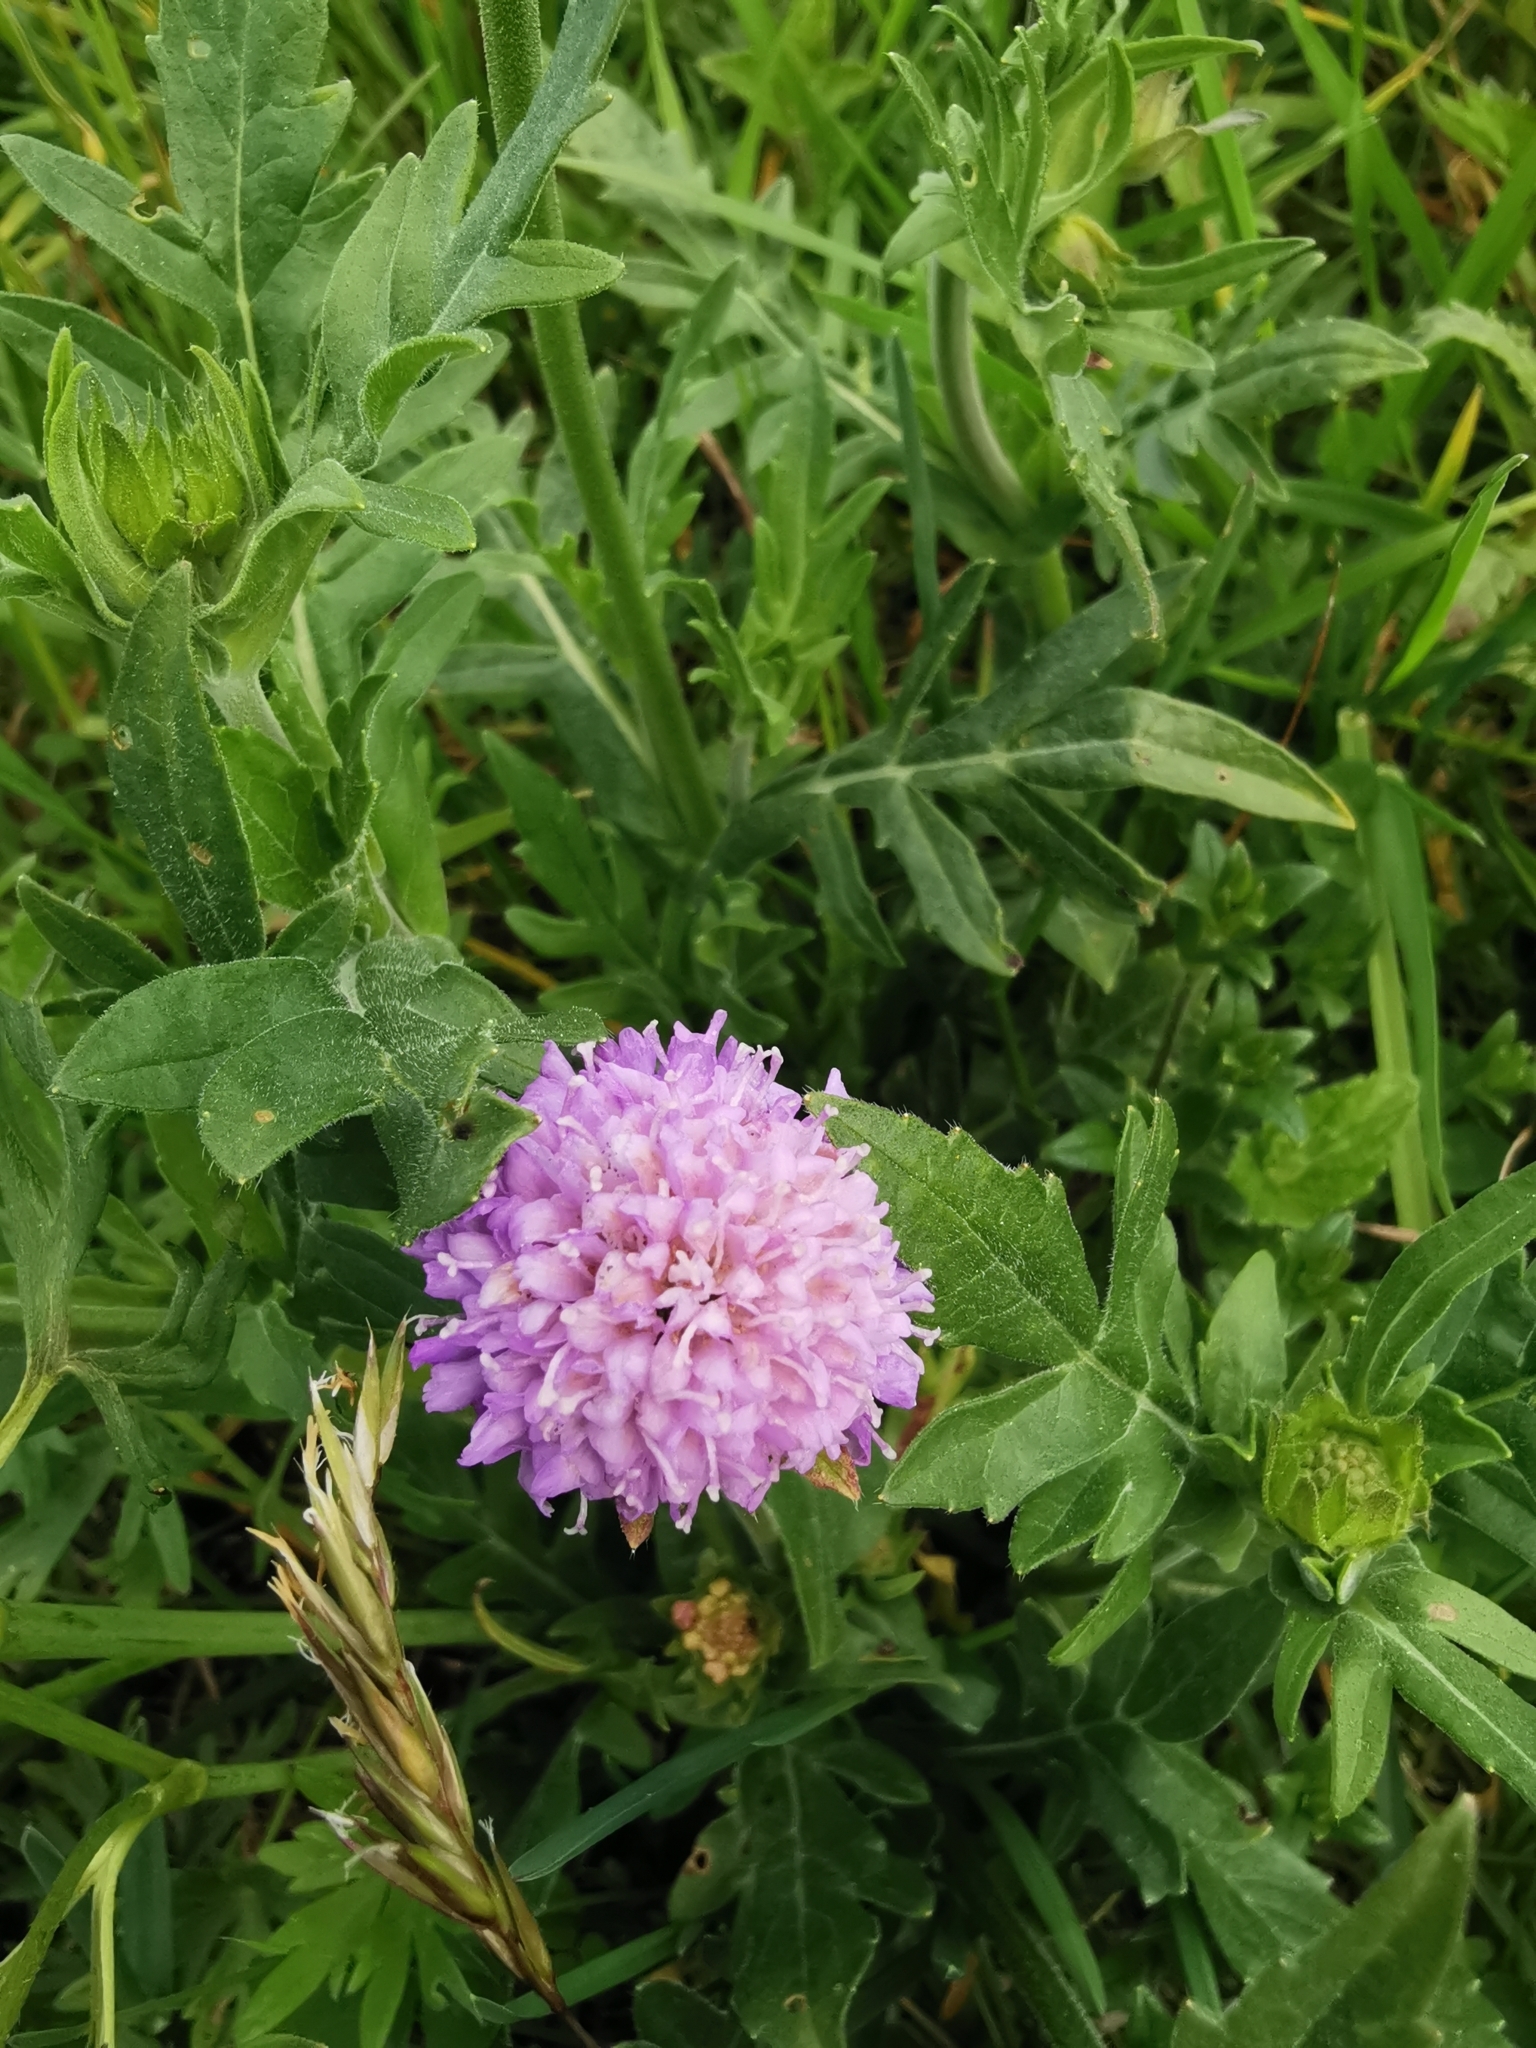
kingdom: Plantae
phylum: Tracheophyta
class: Magnoliopsida
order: Dipsacales
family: Caprifoliaceae
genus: Knautia
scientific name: Knautia arvensis
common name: Field scabiosa
